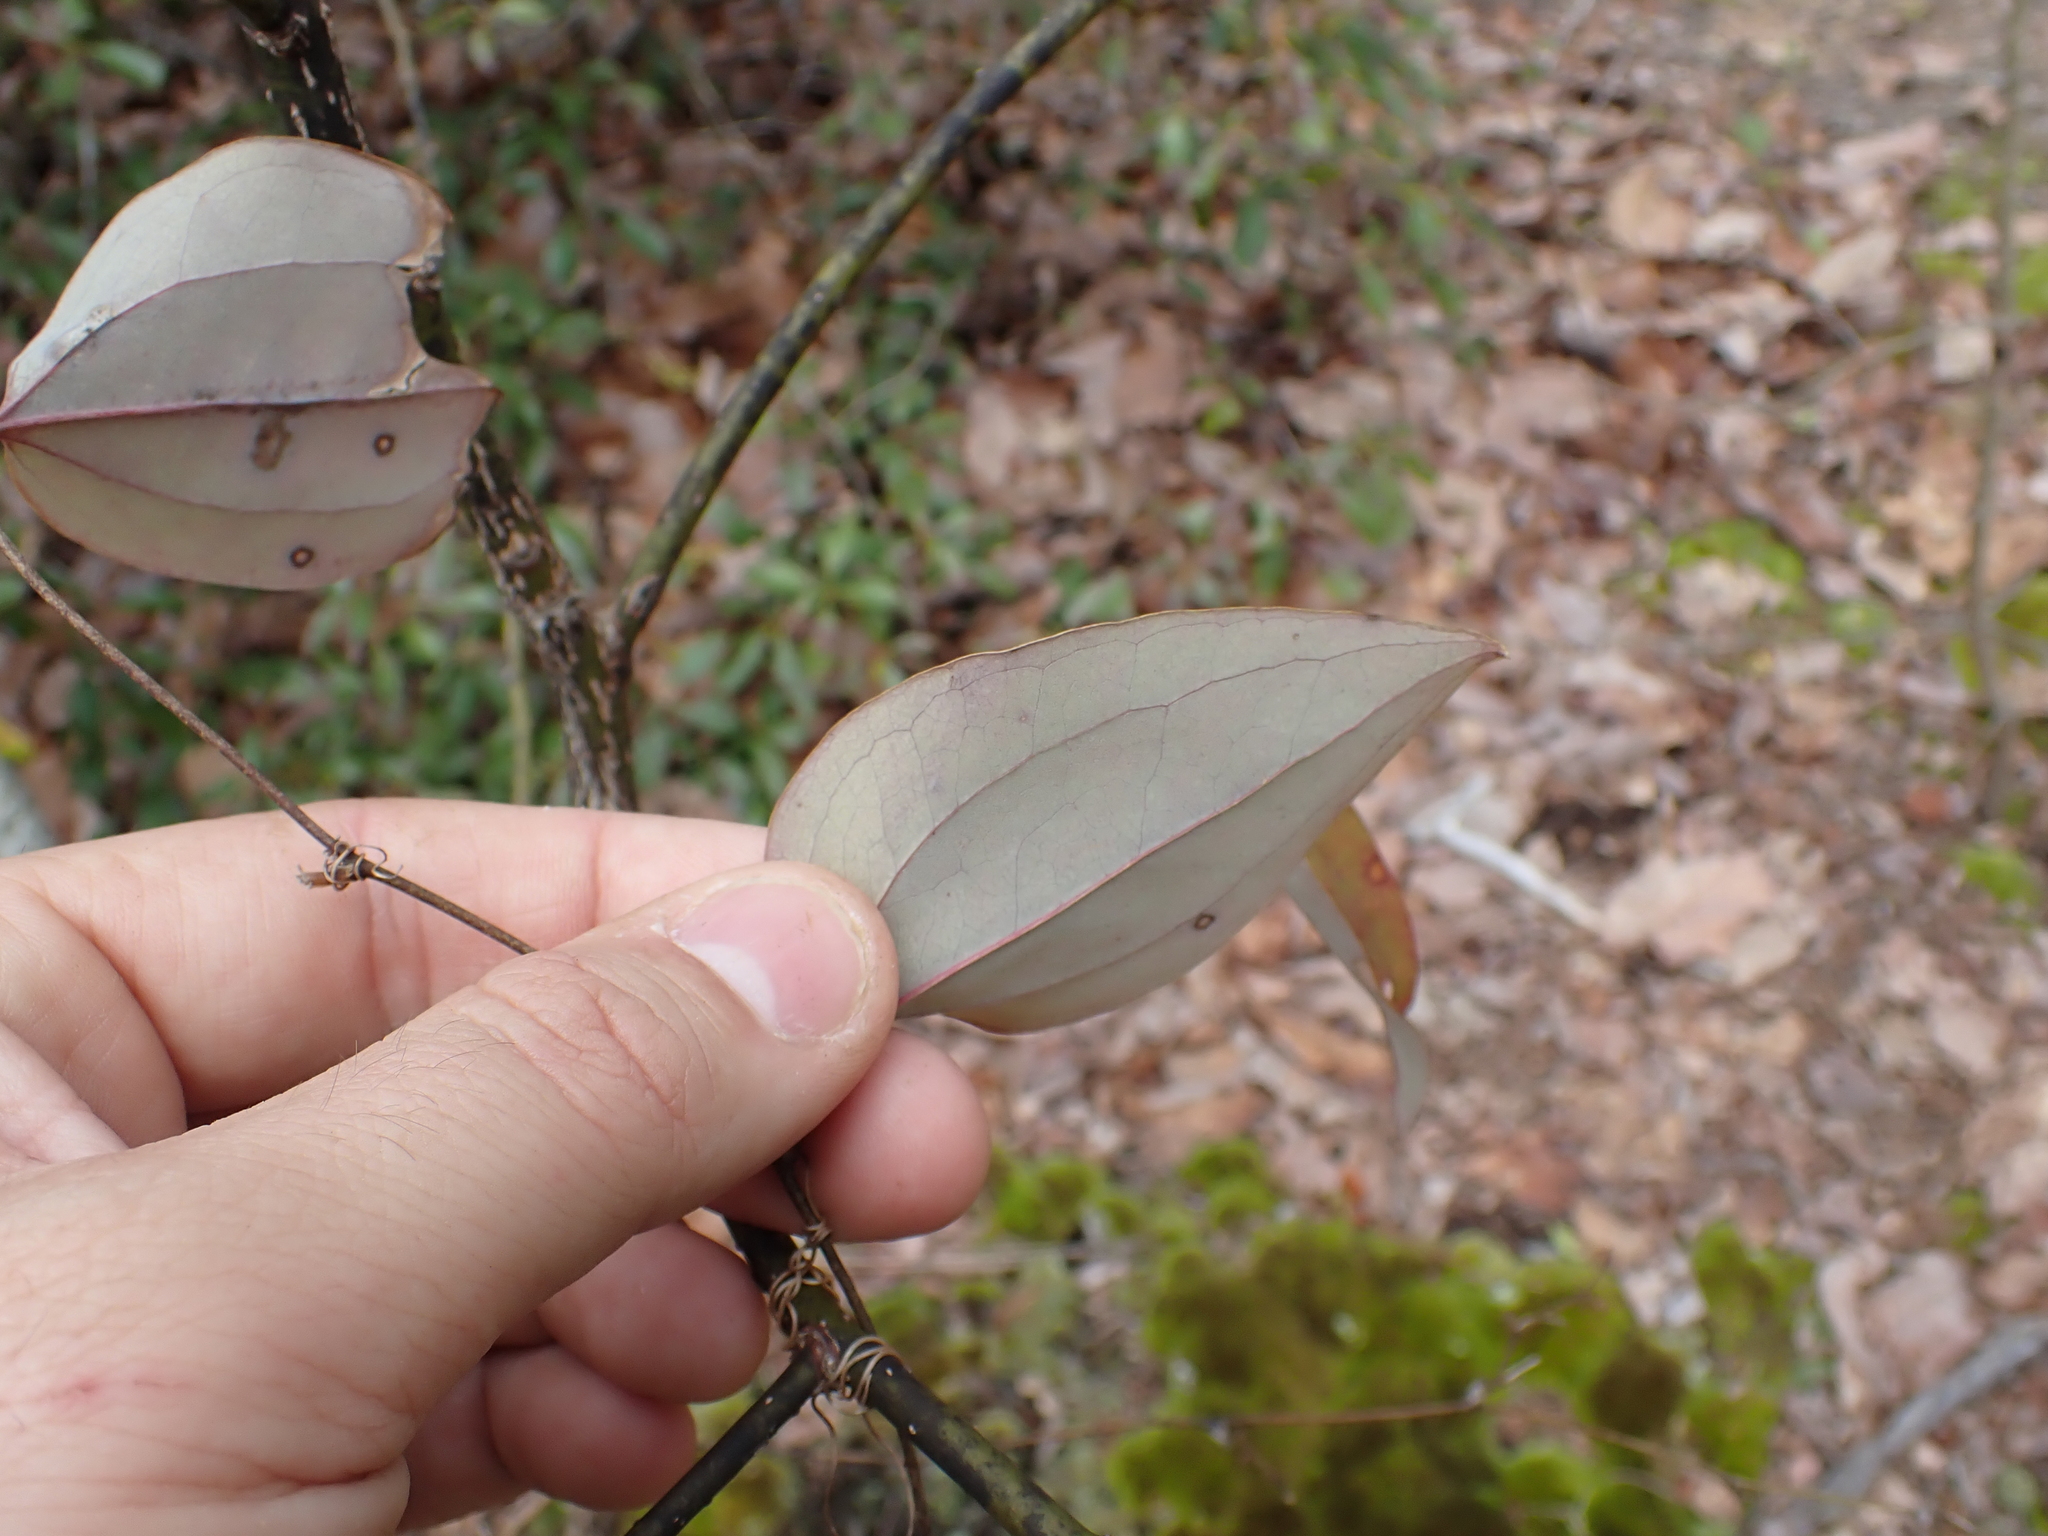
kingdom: Plantae
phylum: Tracheophyta
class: Liliopsida
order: Liliales
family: Smilacaceae
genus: Smilax
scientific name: Smilax glauca
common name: Cat greenbrier
